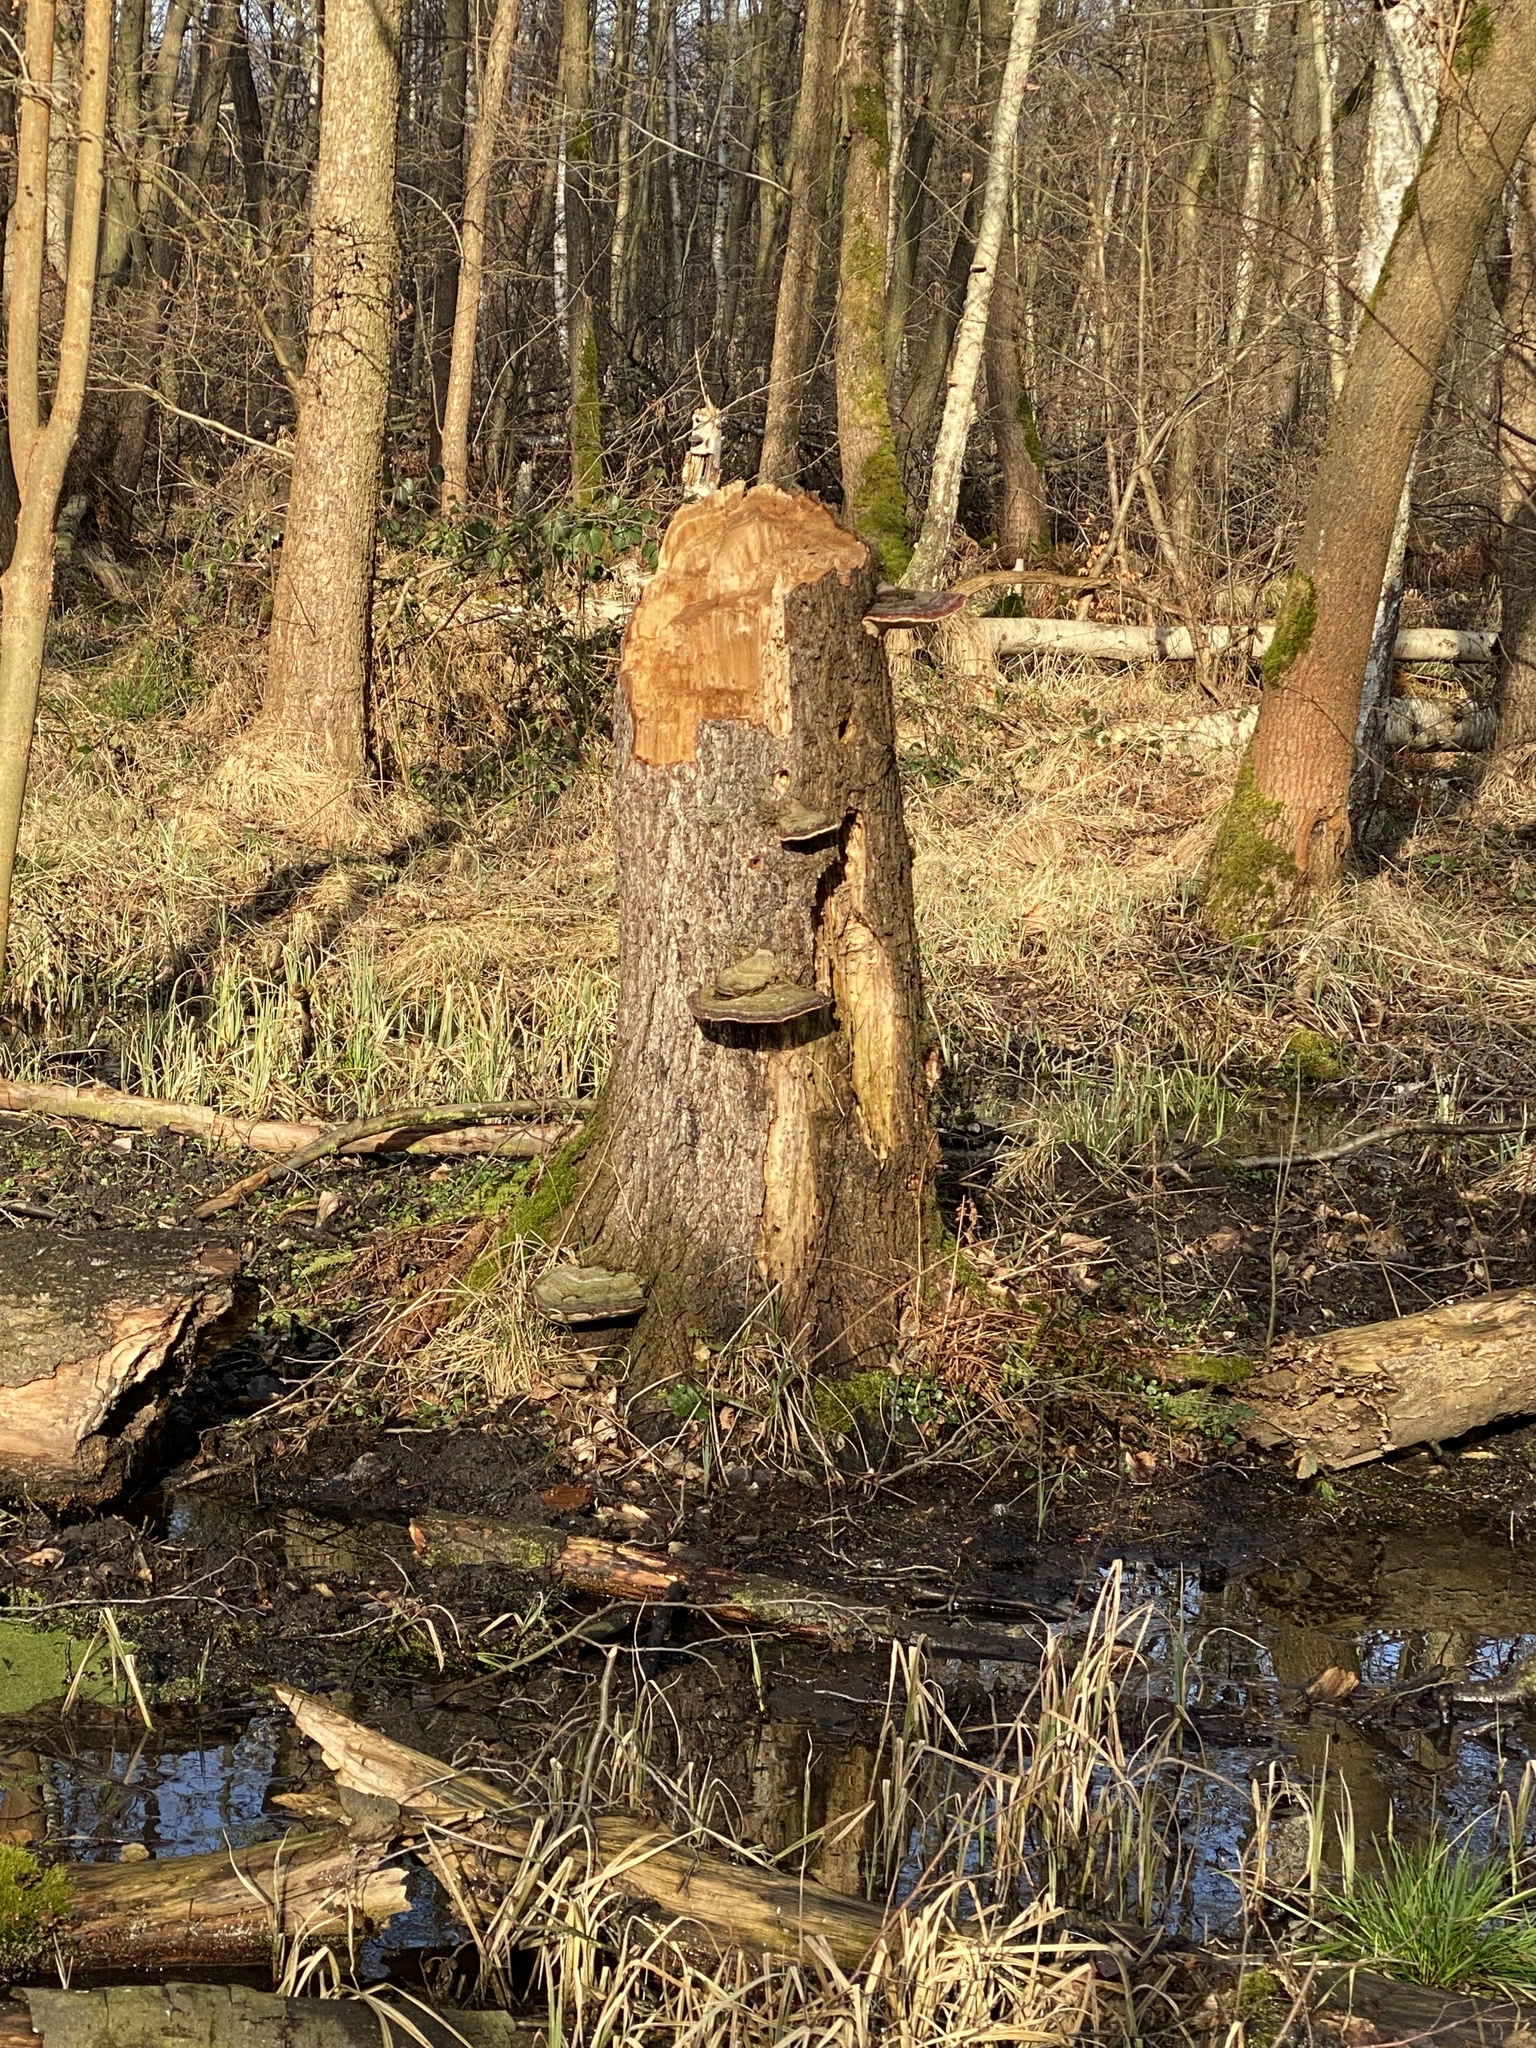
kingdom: Fungi
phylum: Basidiomycota
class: Agaricomycetes
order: Polyporales
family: Fomitopsidaceae
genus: Fomitopsis
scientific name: Fomitopsis pinicola
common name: Red-belted bracket
